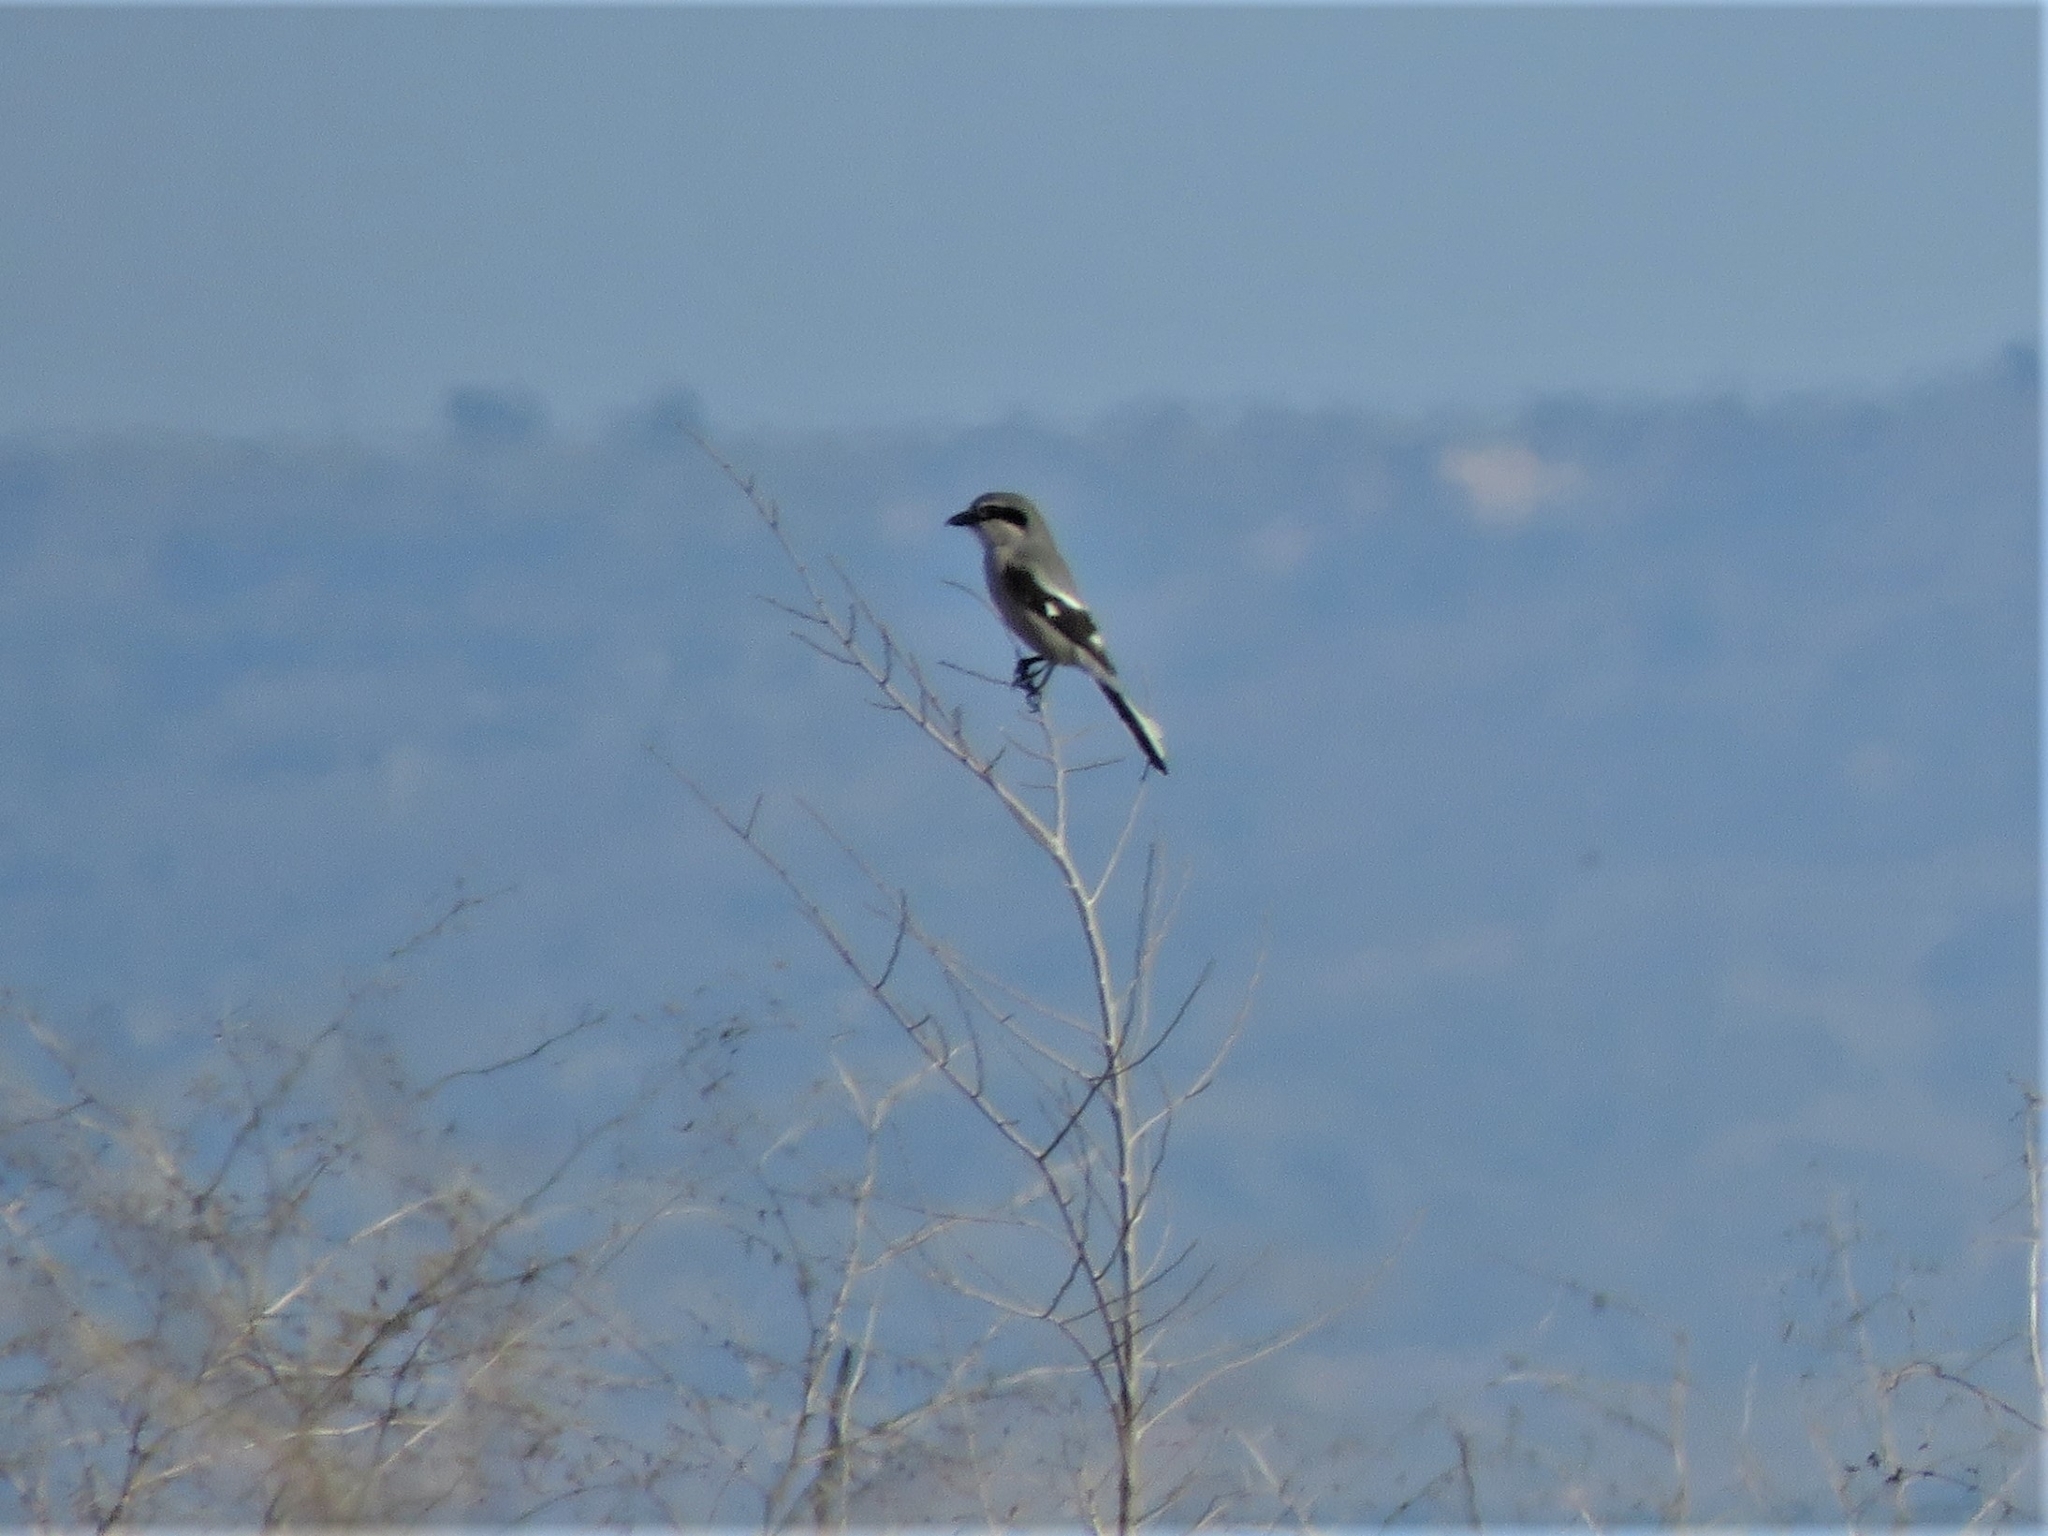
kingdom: Animalia
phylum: Chordata
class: Aves
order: Passeriformes
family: Laniidae
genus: Lanius
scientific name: Lanius meridionalis
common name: Iberian grey shrike
